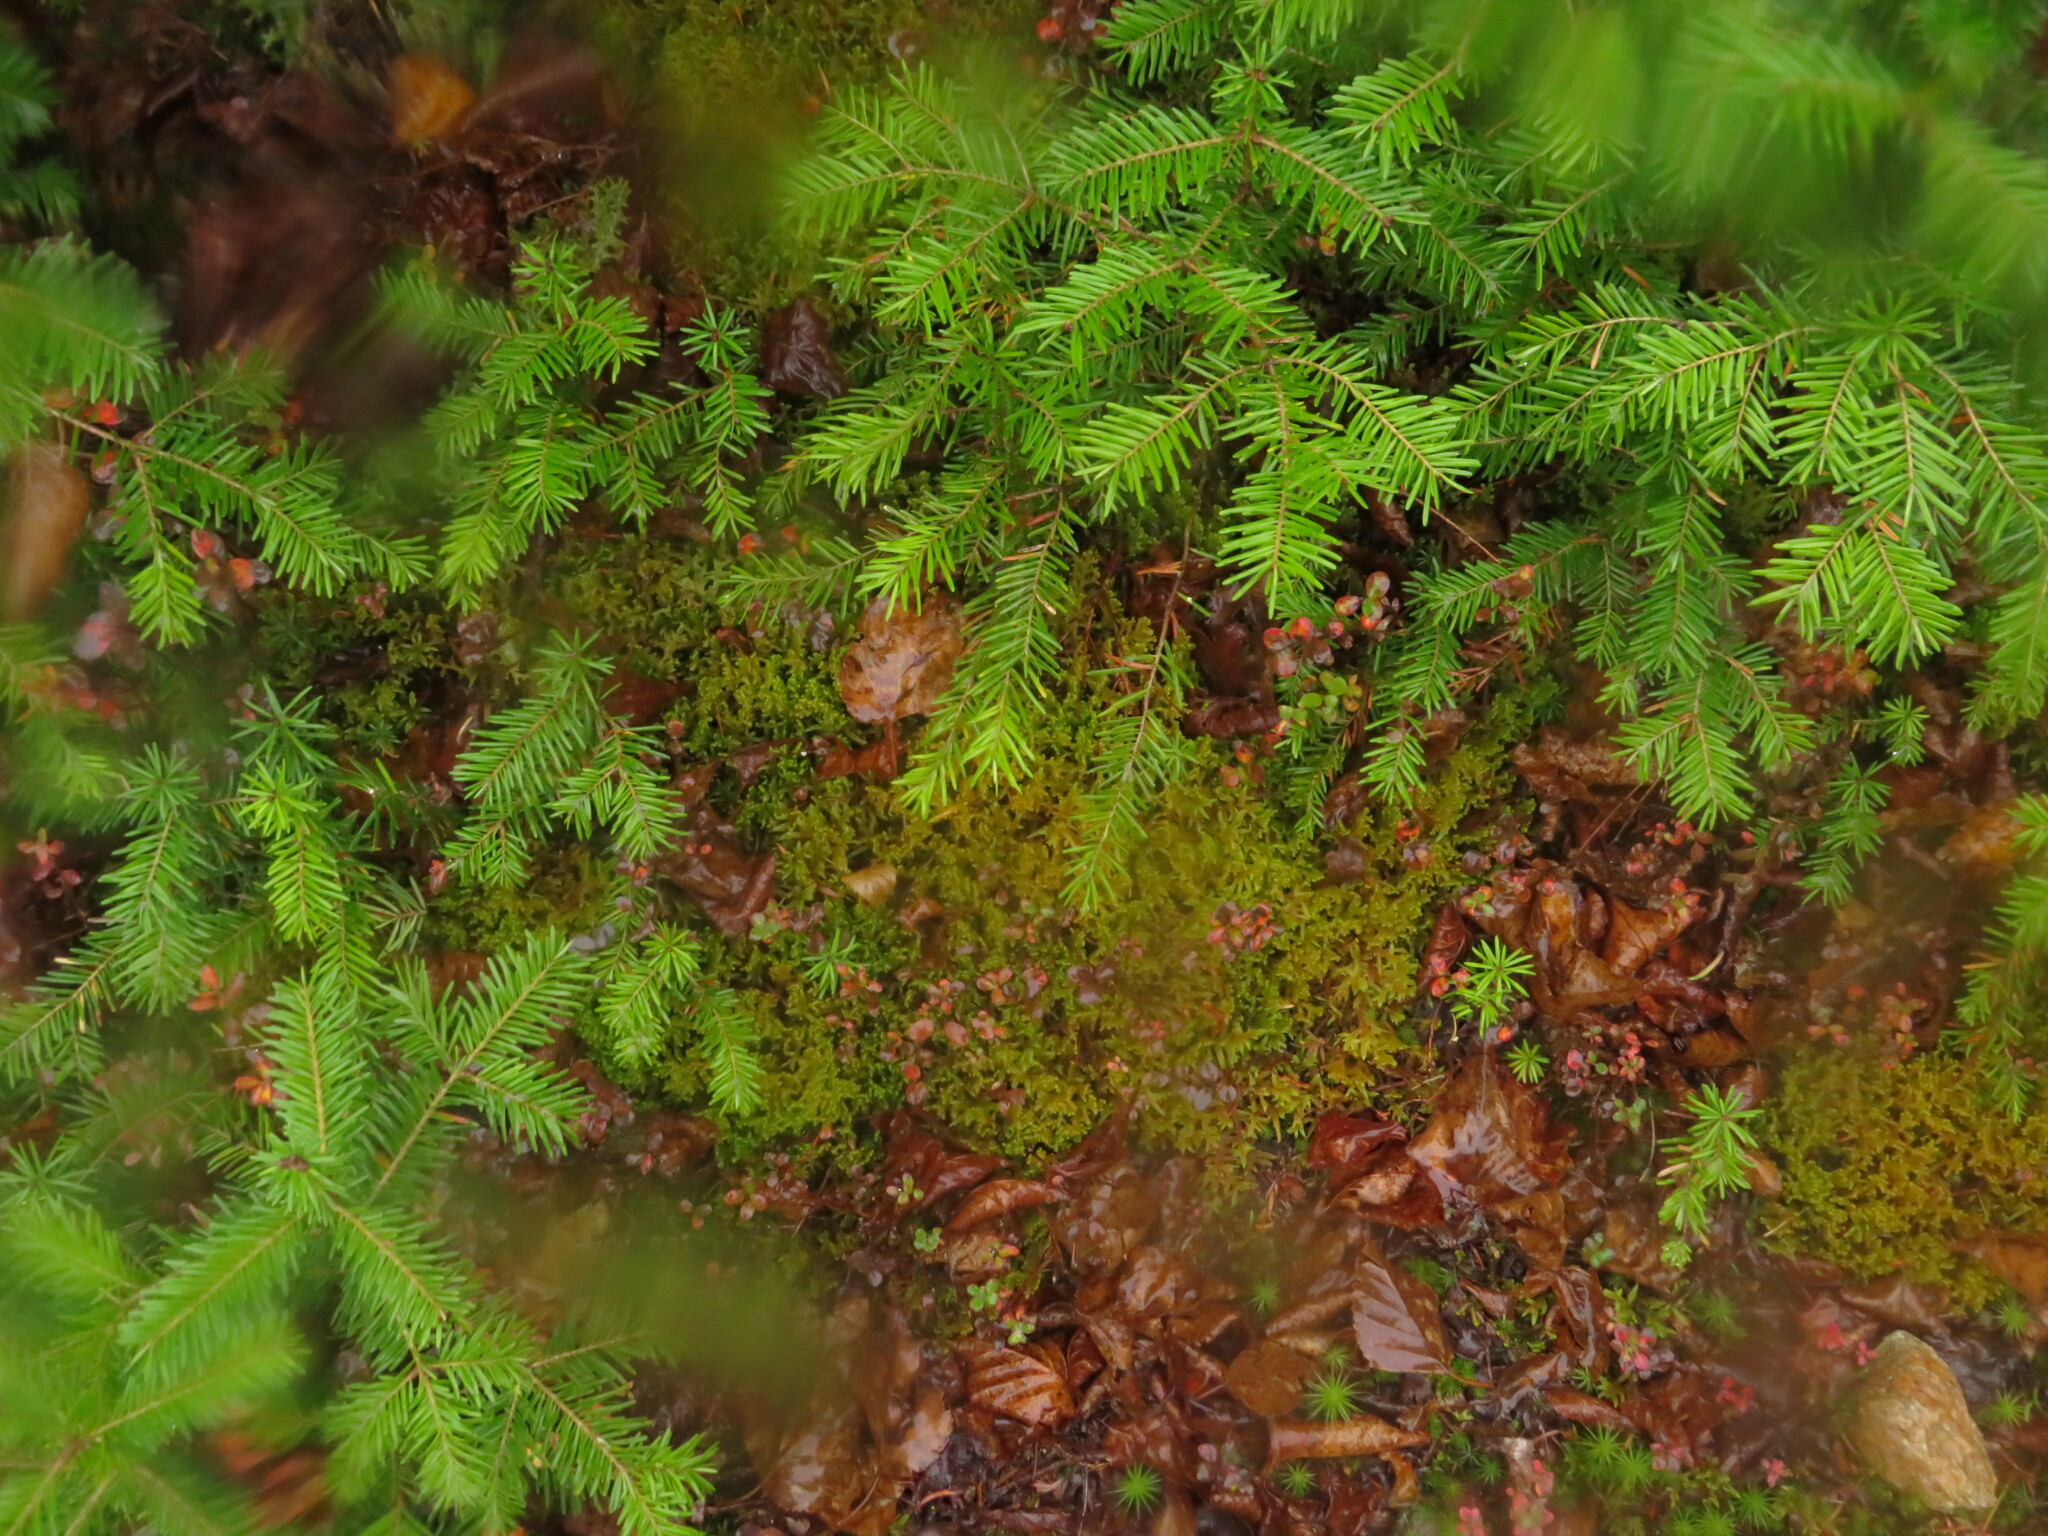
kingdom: Plantae
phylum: Tracheophyta
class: Pinopsida
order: Pinales
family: Pinaceae
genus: Abies
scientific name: Abies balsamea
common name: Balsam fir
